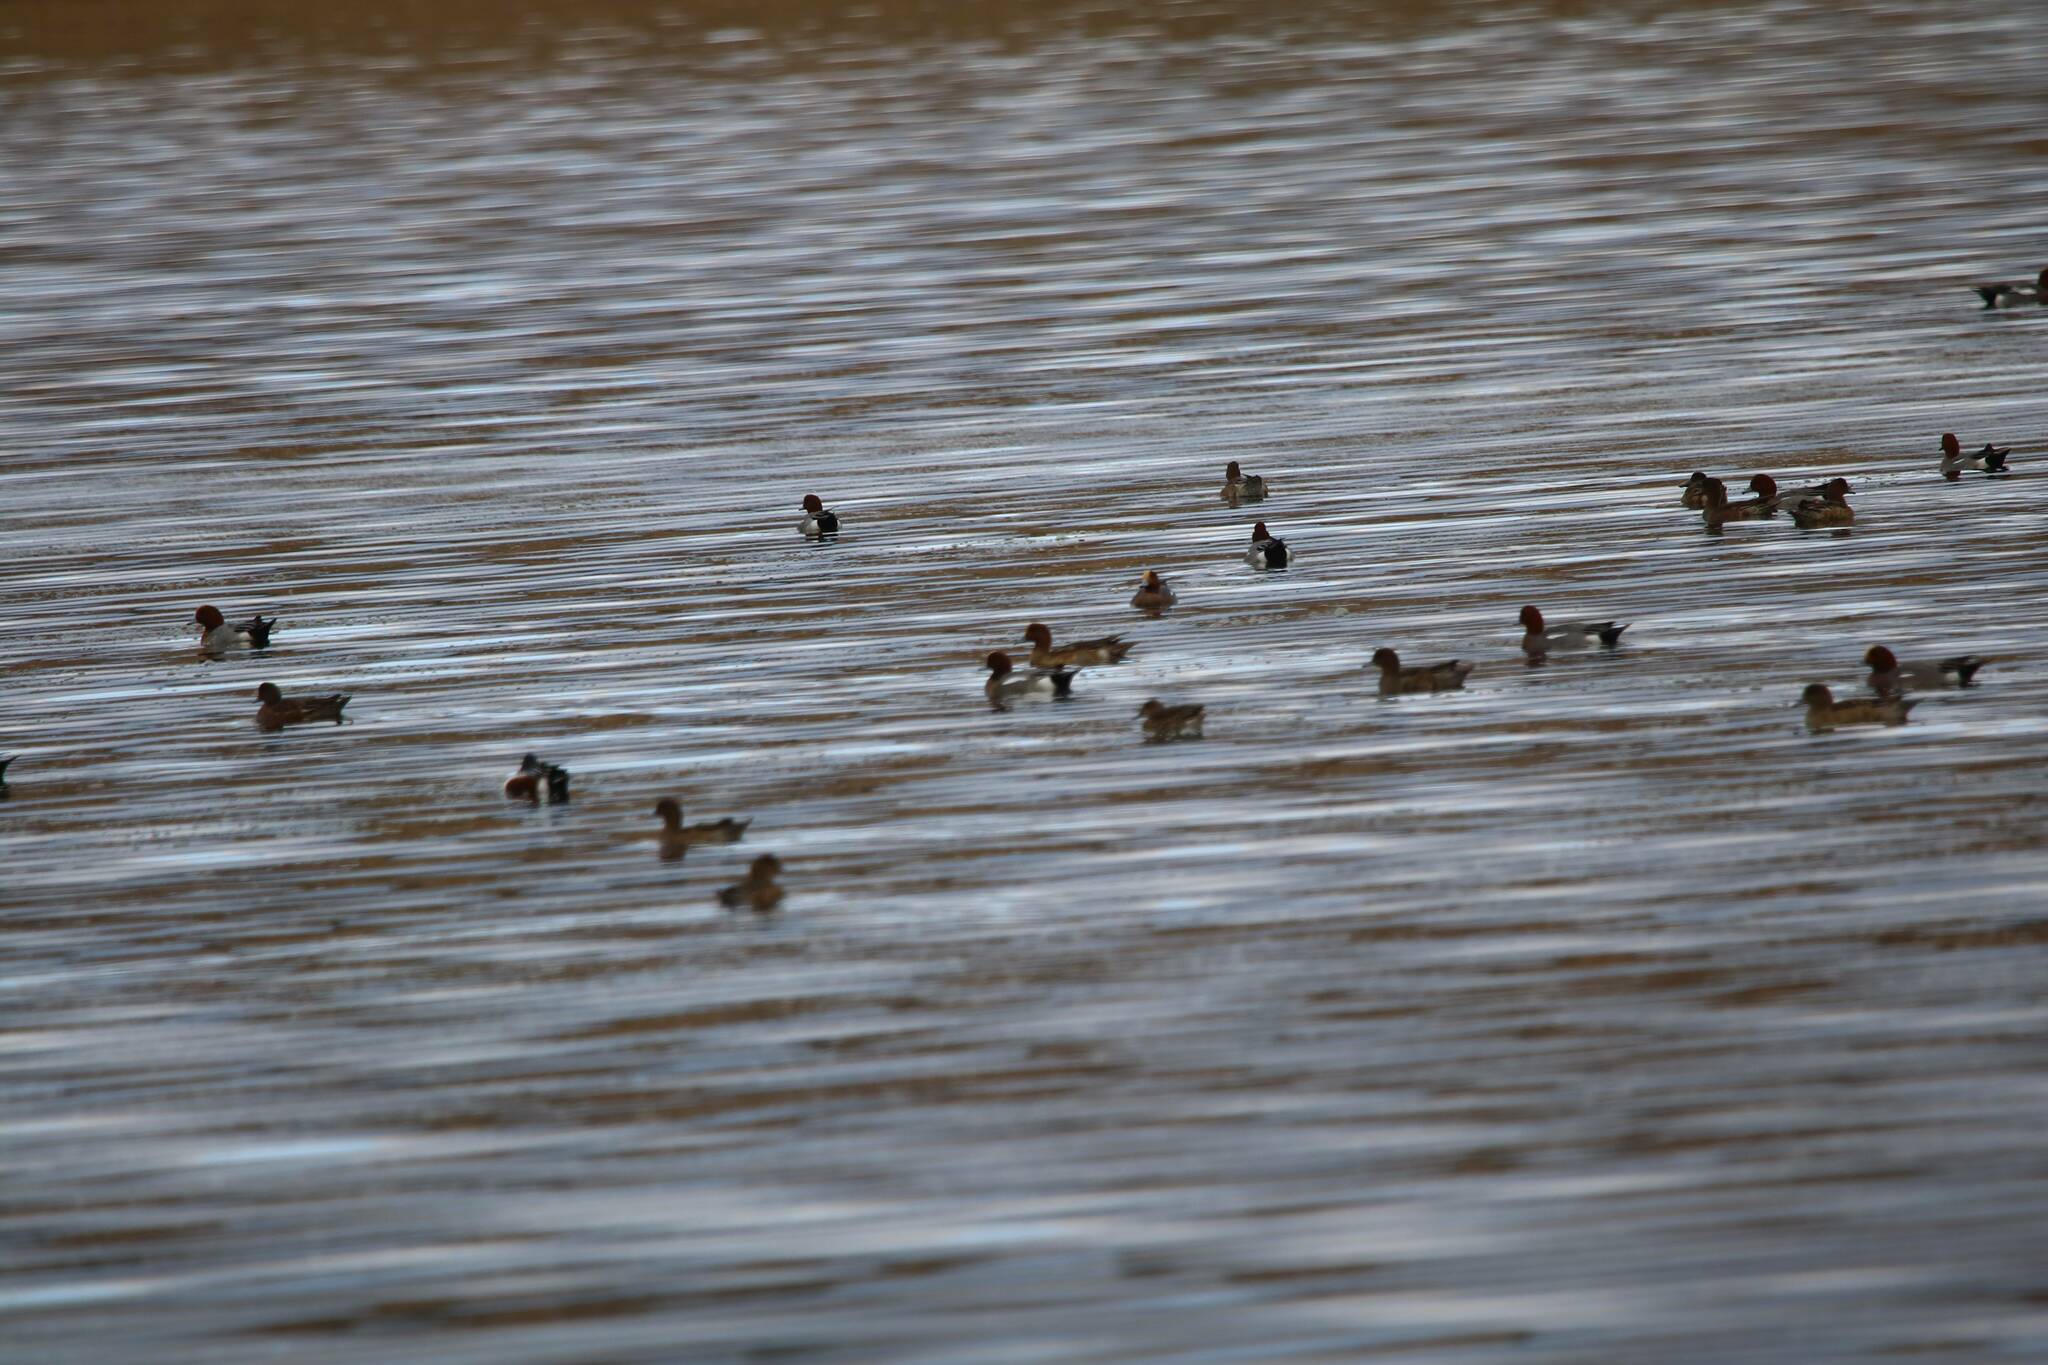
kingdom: Animalia
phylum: Chordata
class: Aves
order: Anseriformes
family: Anatidae
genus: Mareca
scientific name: Mareca penelope
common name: Eurasian wigeon
